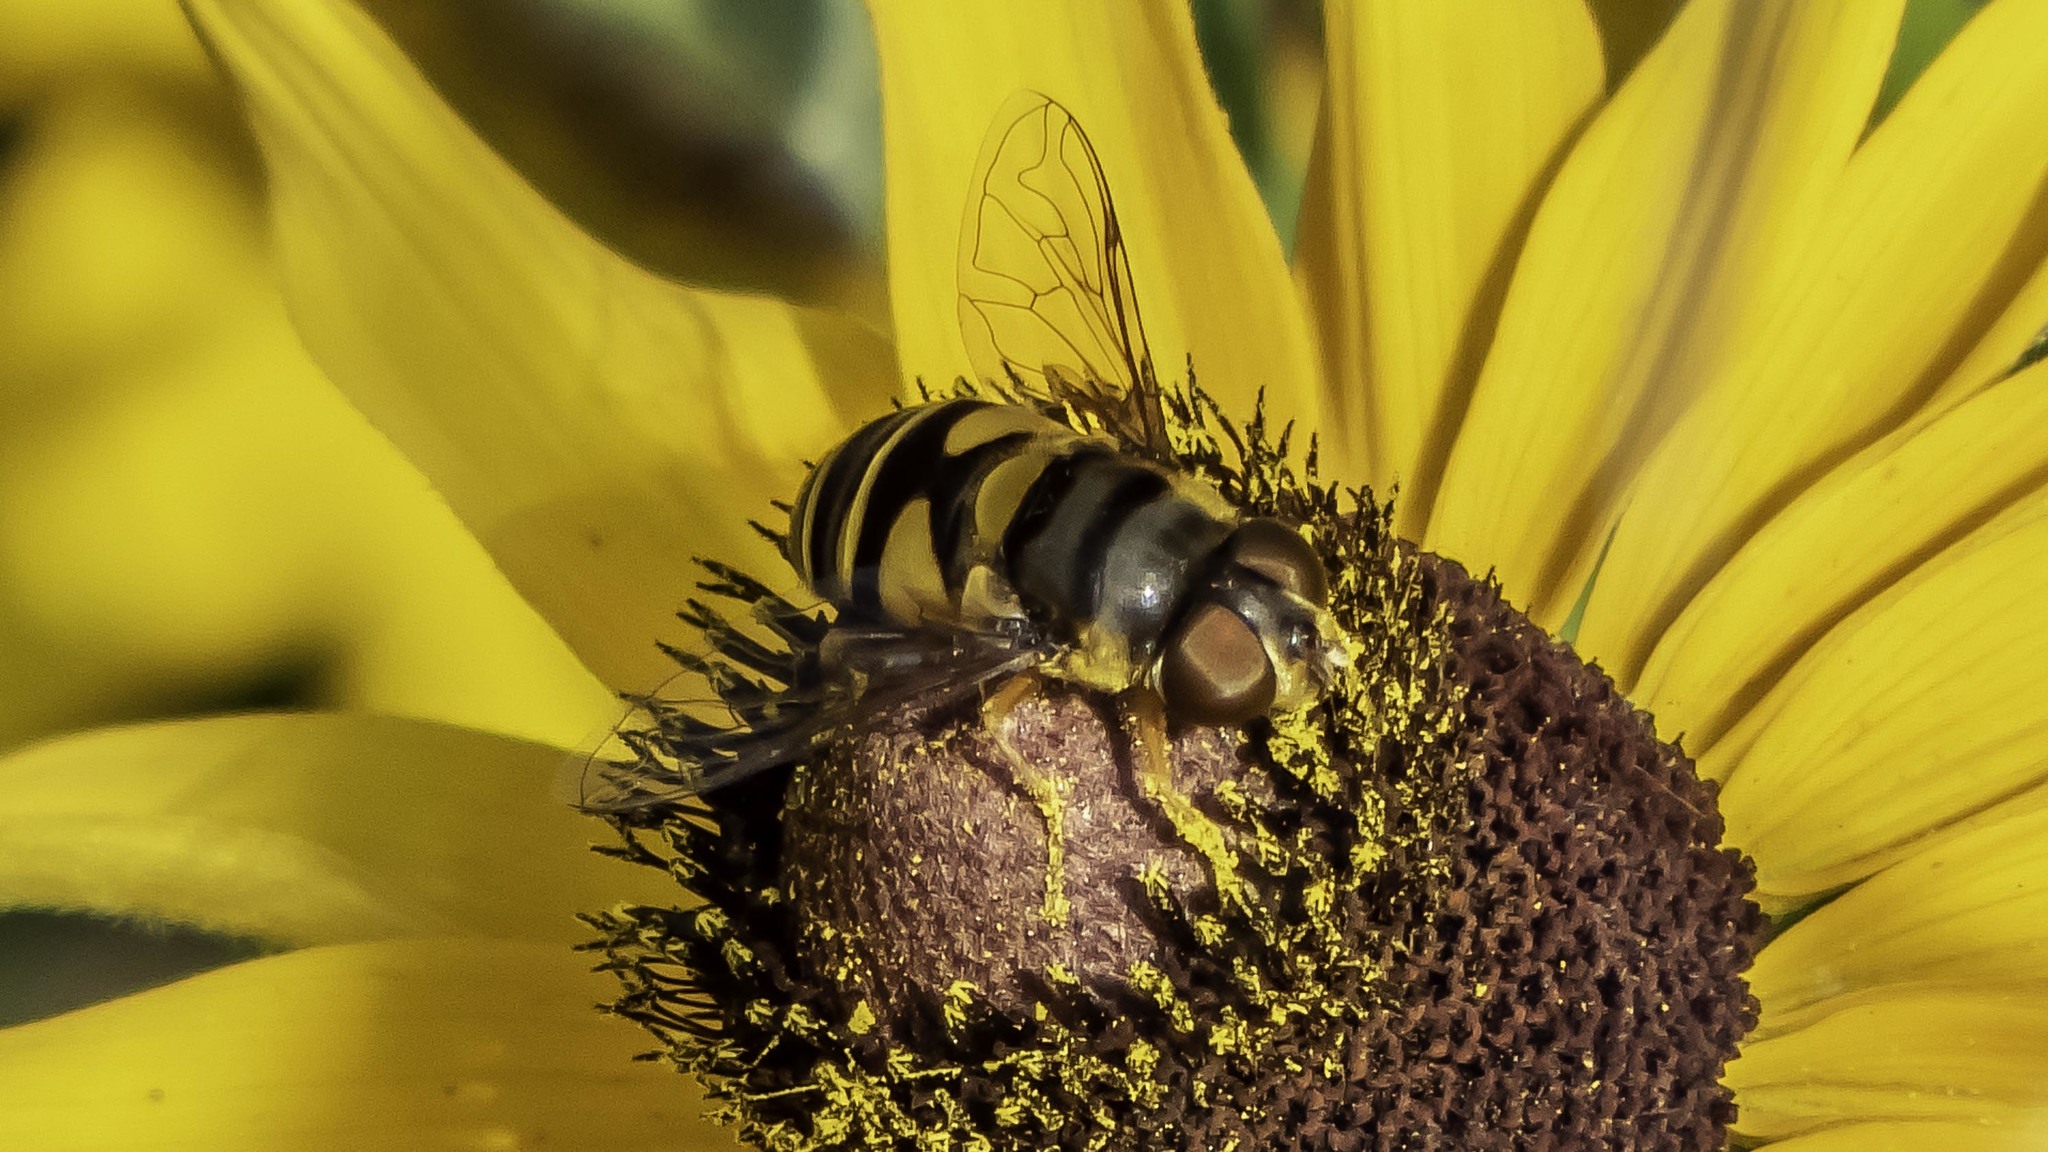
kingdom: Animalia
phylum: Arthropoda
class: Insecta
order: Diptera
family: Syrphidae
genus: Eristalis
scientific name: Eristalis transversa
